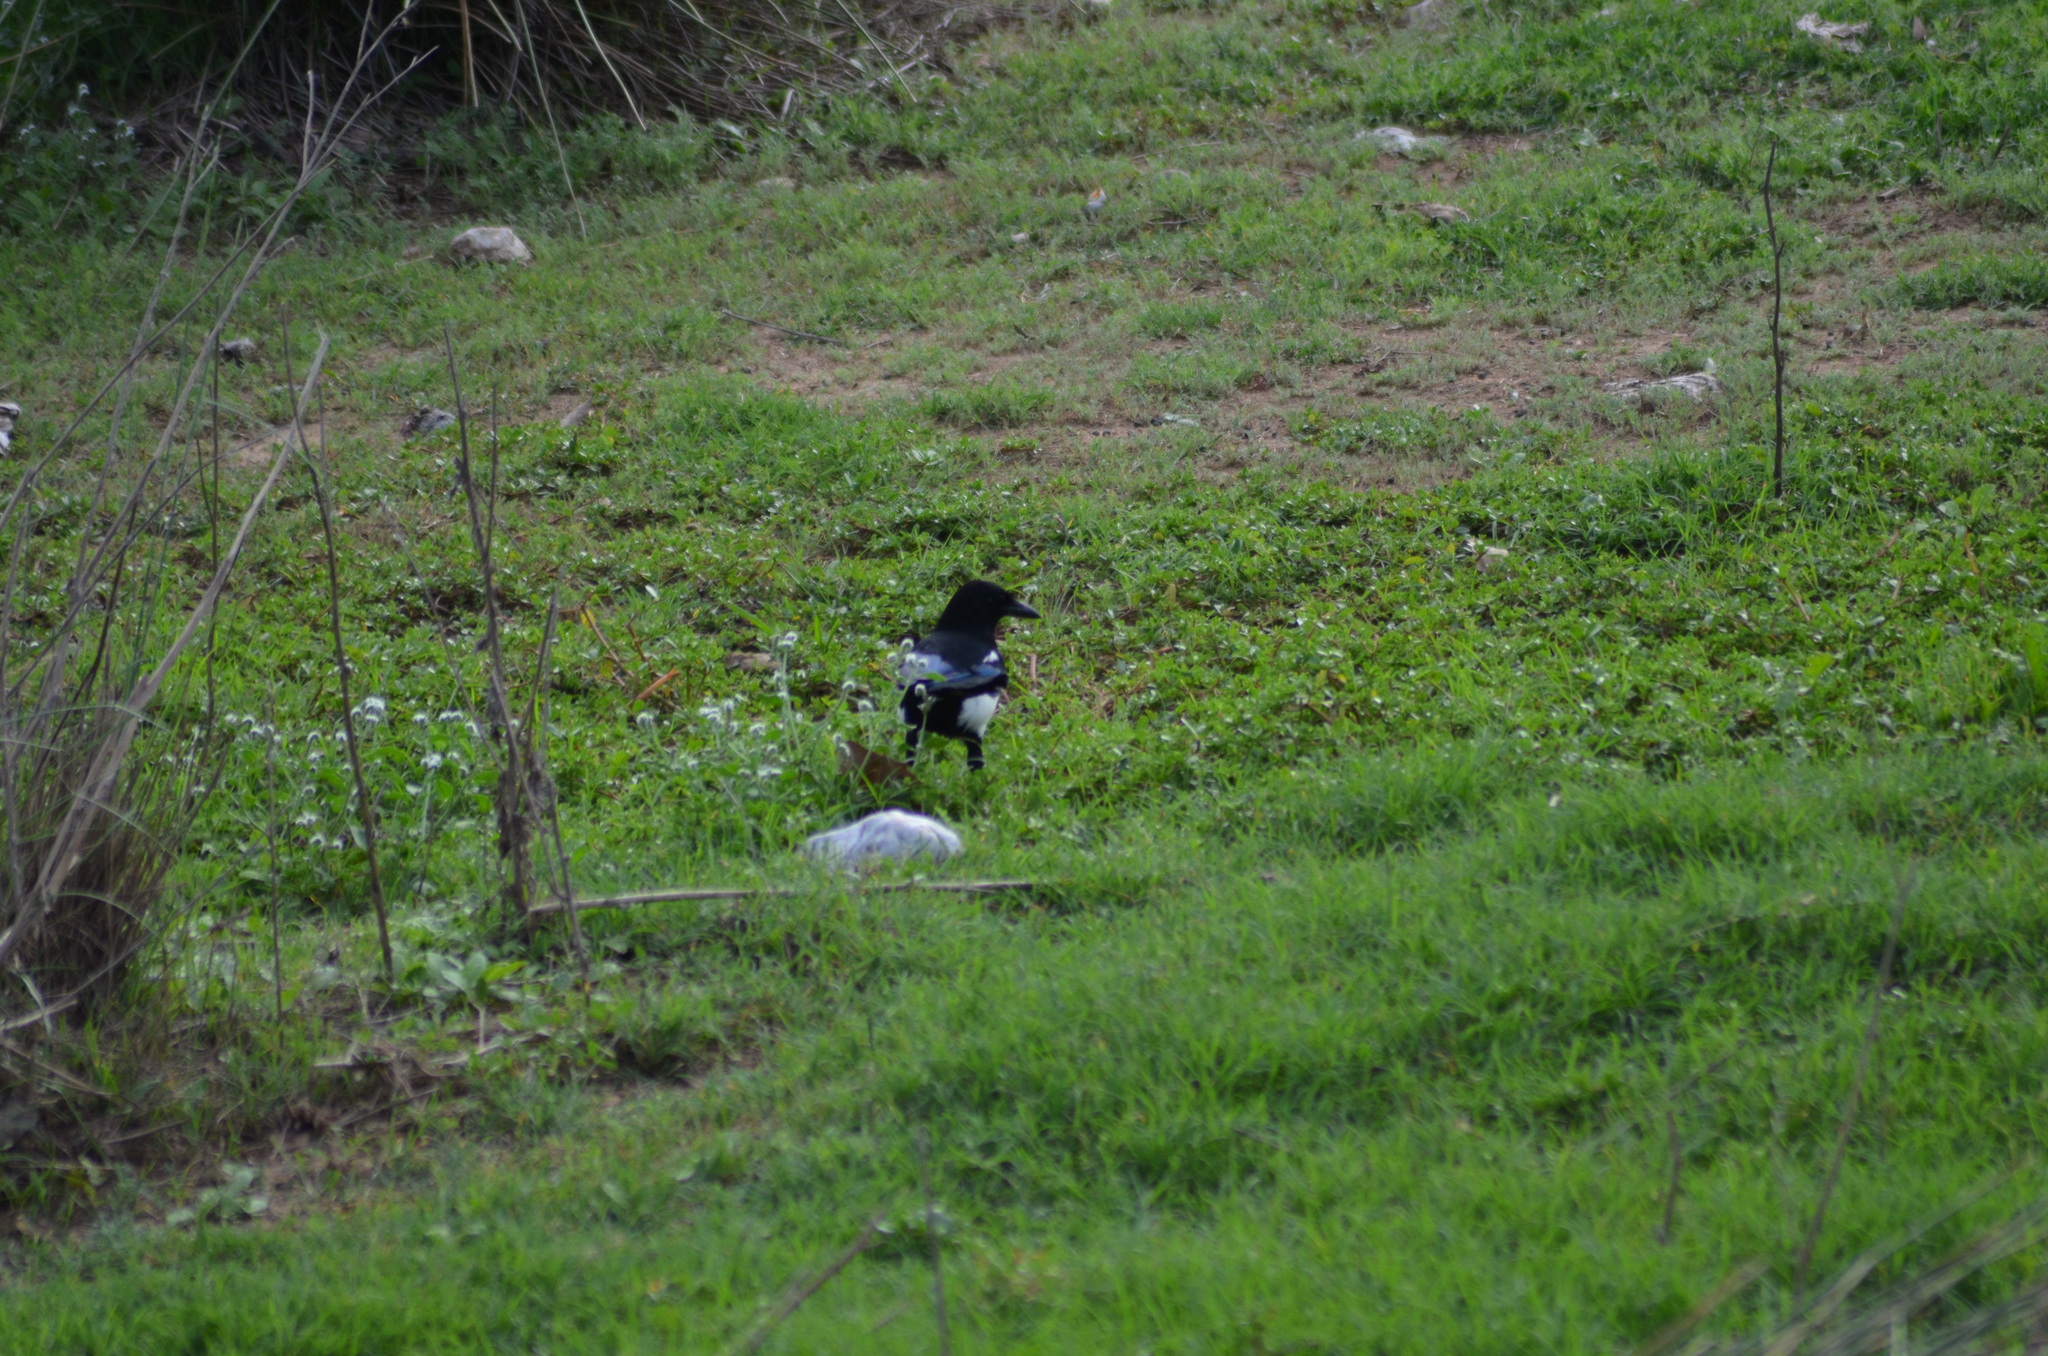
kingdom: Animalia
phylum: Chordata
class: Aves
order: Passeriformes
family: Corvidae
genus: Pica
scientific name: Pica pica
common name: Eurasian magpie
